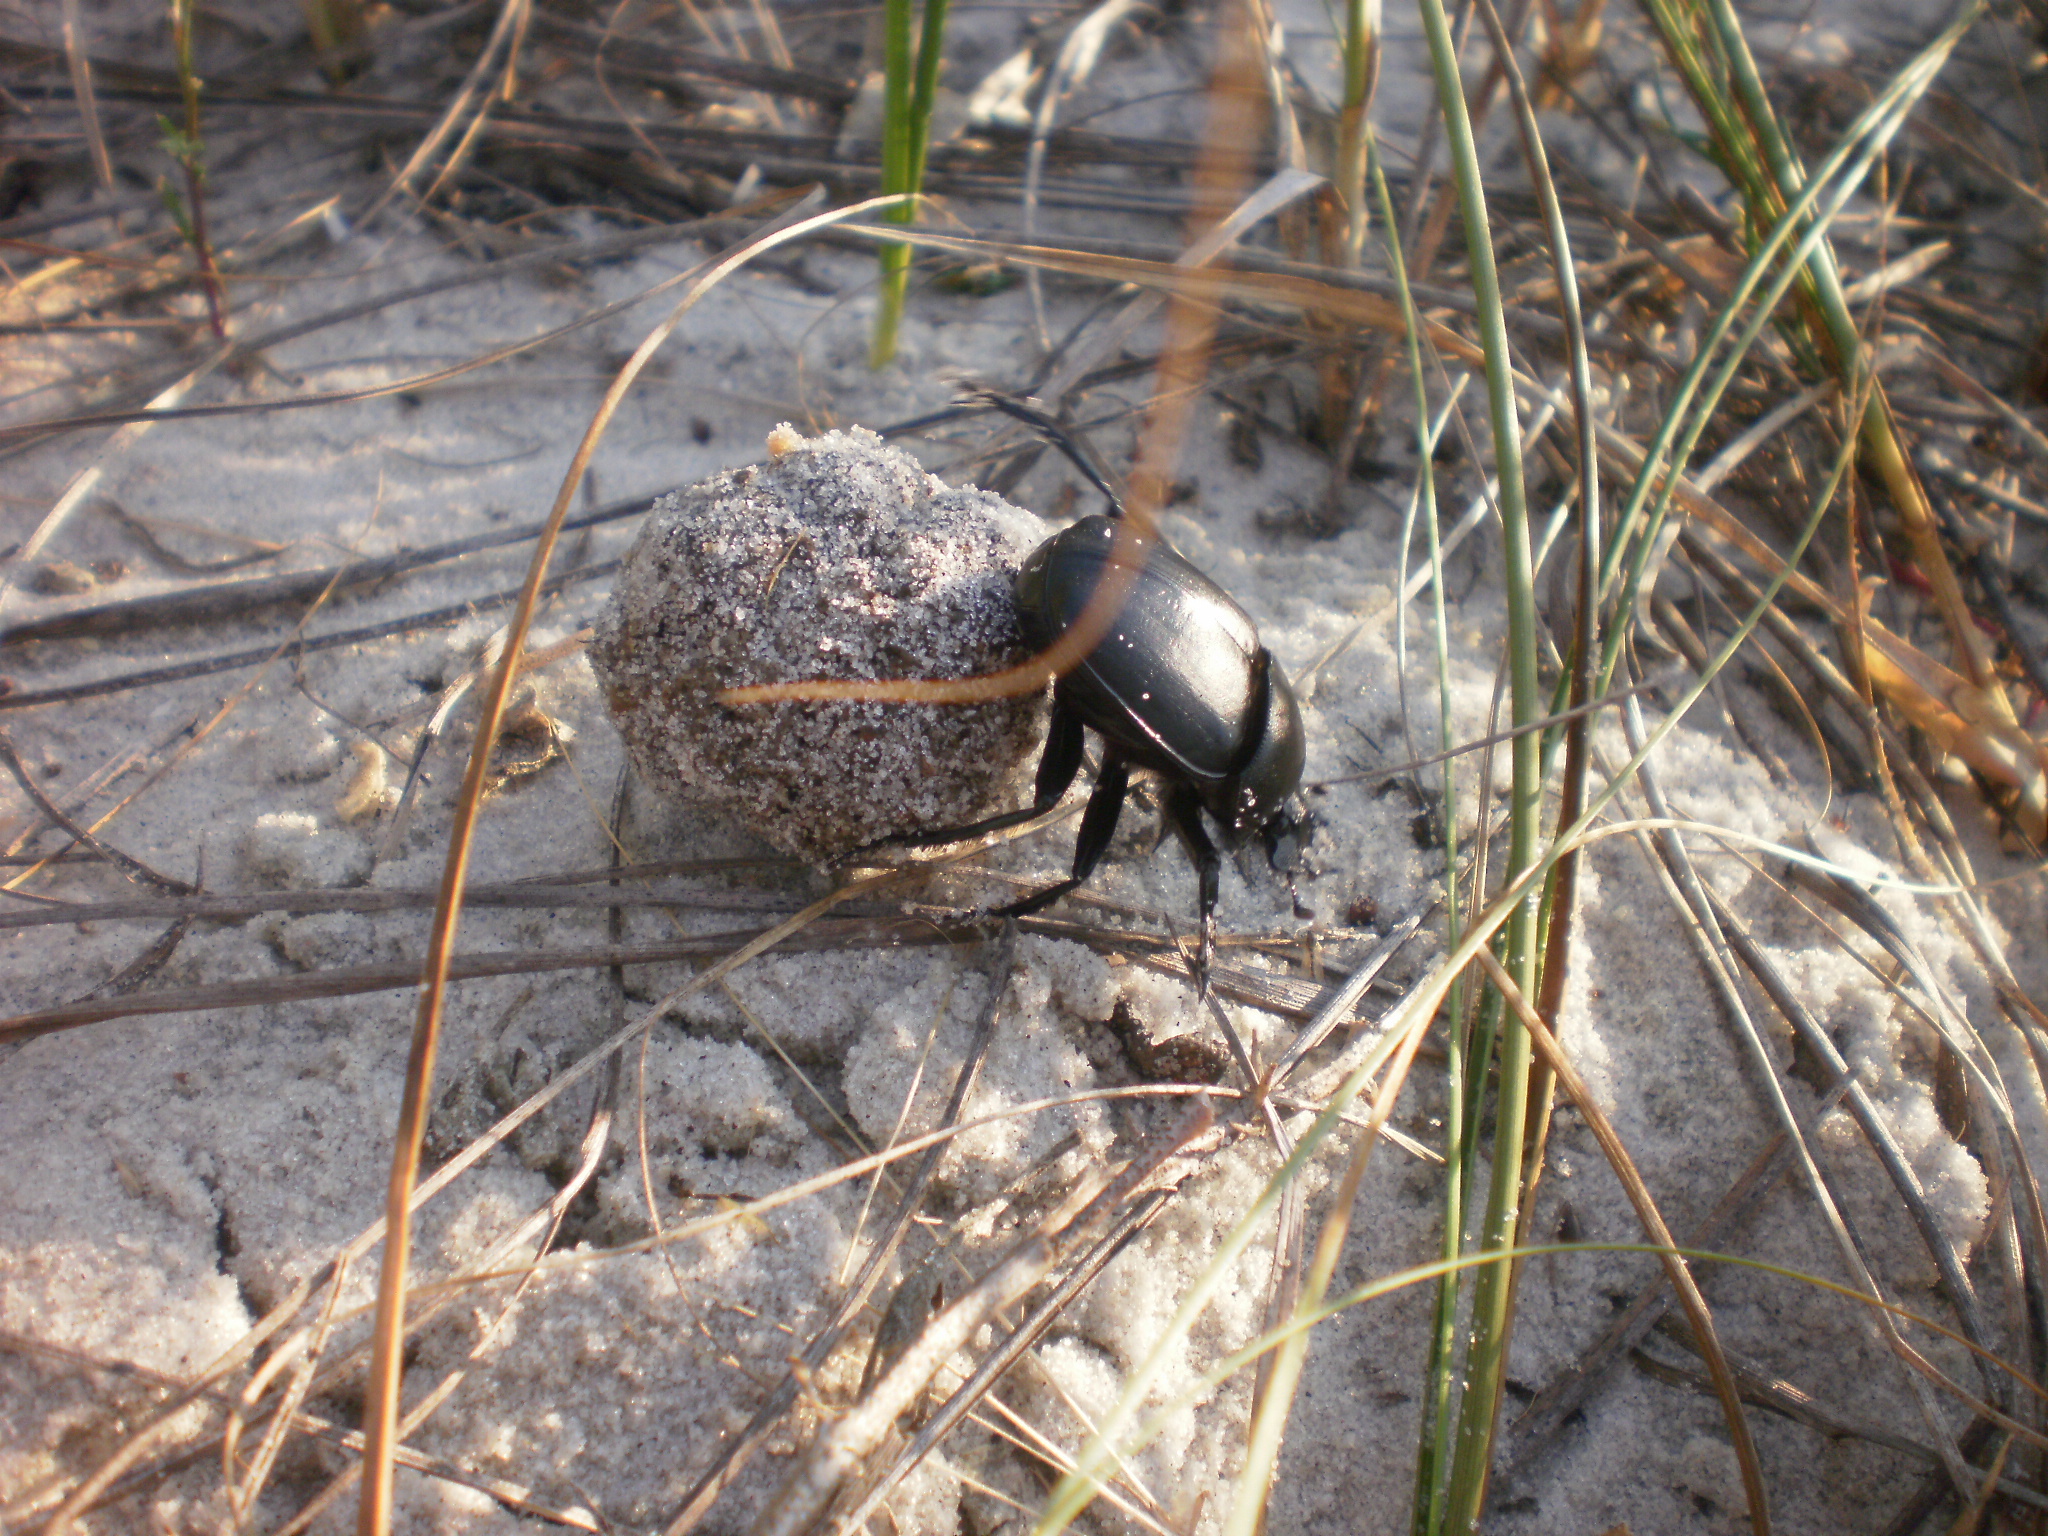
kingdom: Animalia
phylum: Arthropoda
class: Insecta
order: Coleoptera
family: Scarabaeidae
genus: Scarabaeus
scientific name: Scarabaeus typhon
